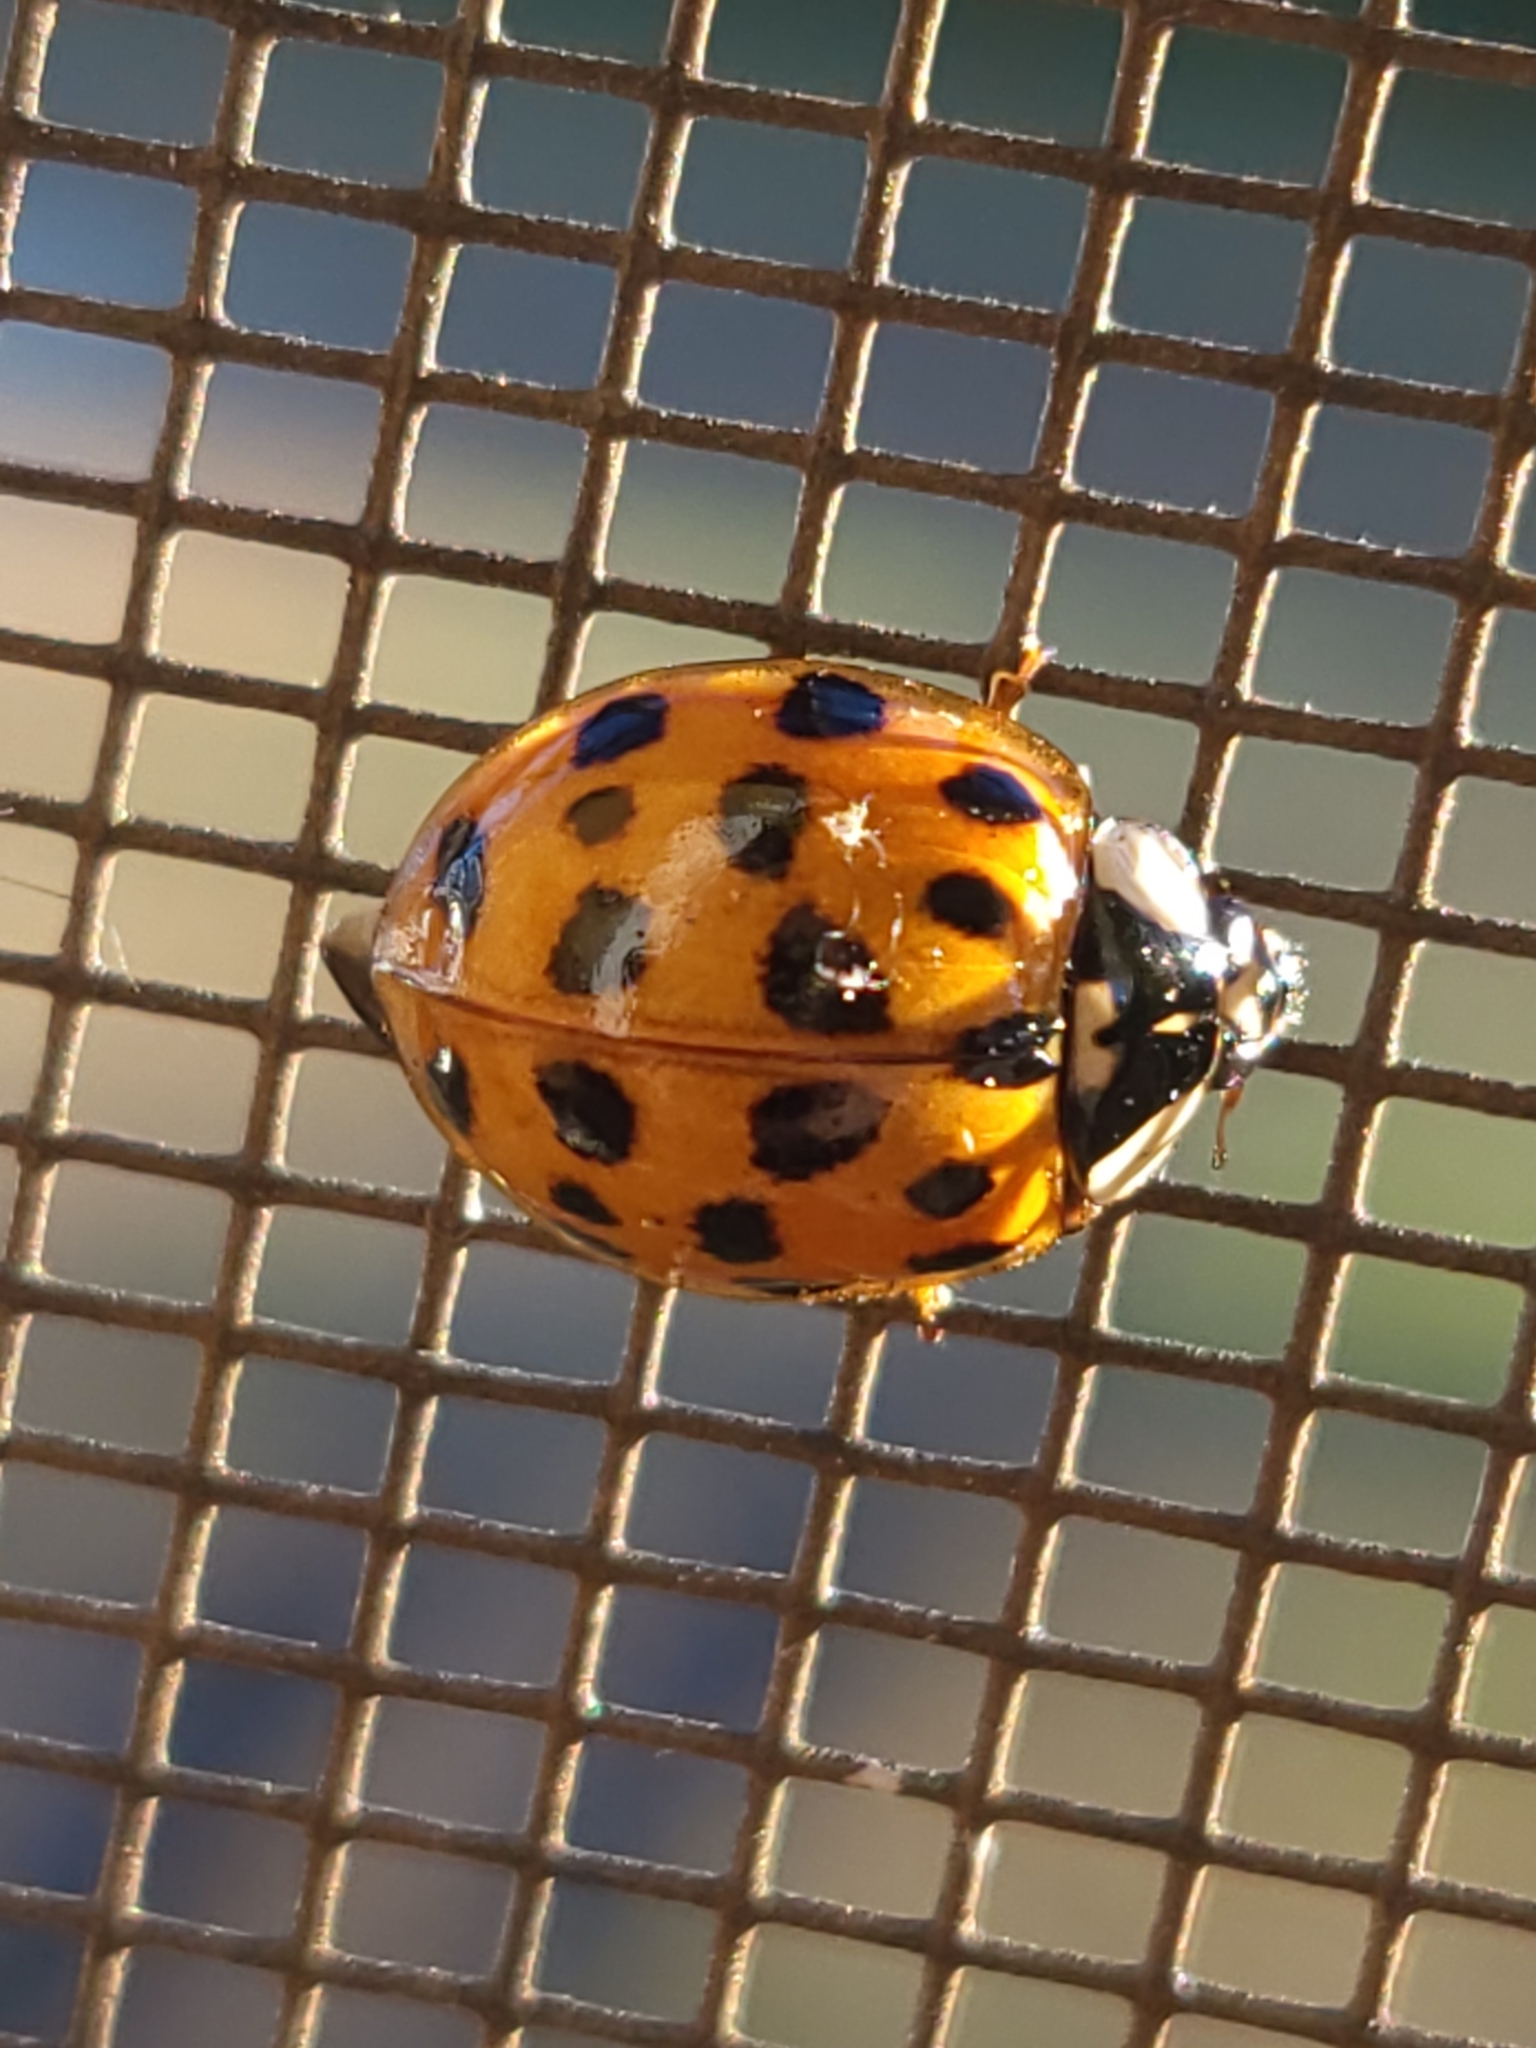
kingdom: Animalia
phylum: Arthropoda
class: Insecta
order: Coleoptera
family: Coccinellidae
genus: Harmonia
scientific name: Harmonia axyridis
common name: Harlequin ladybird
